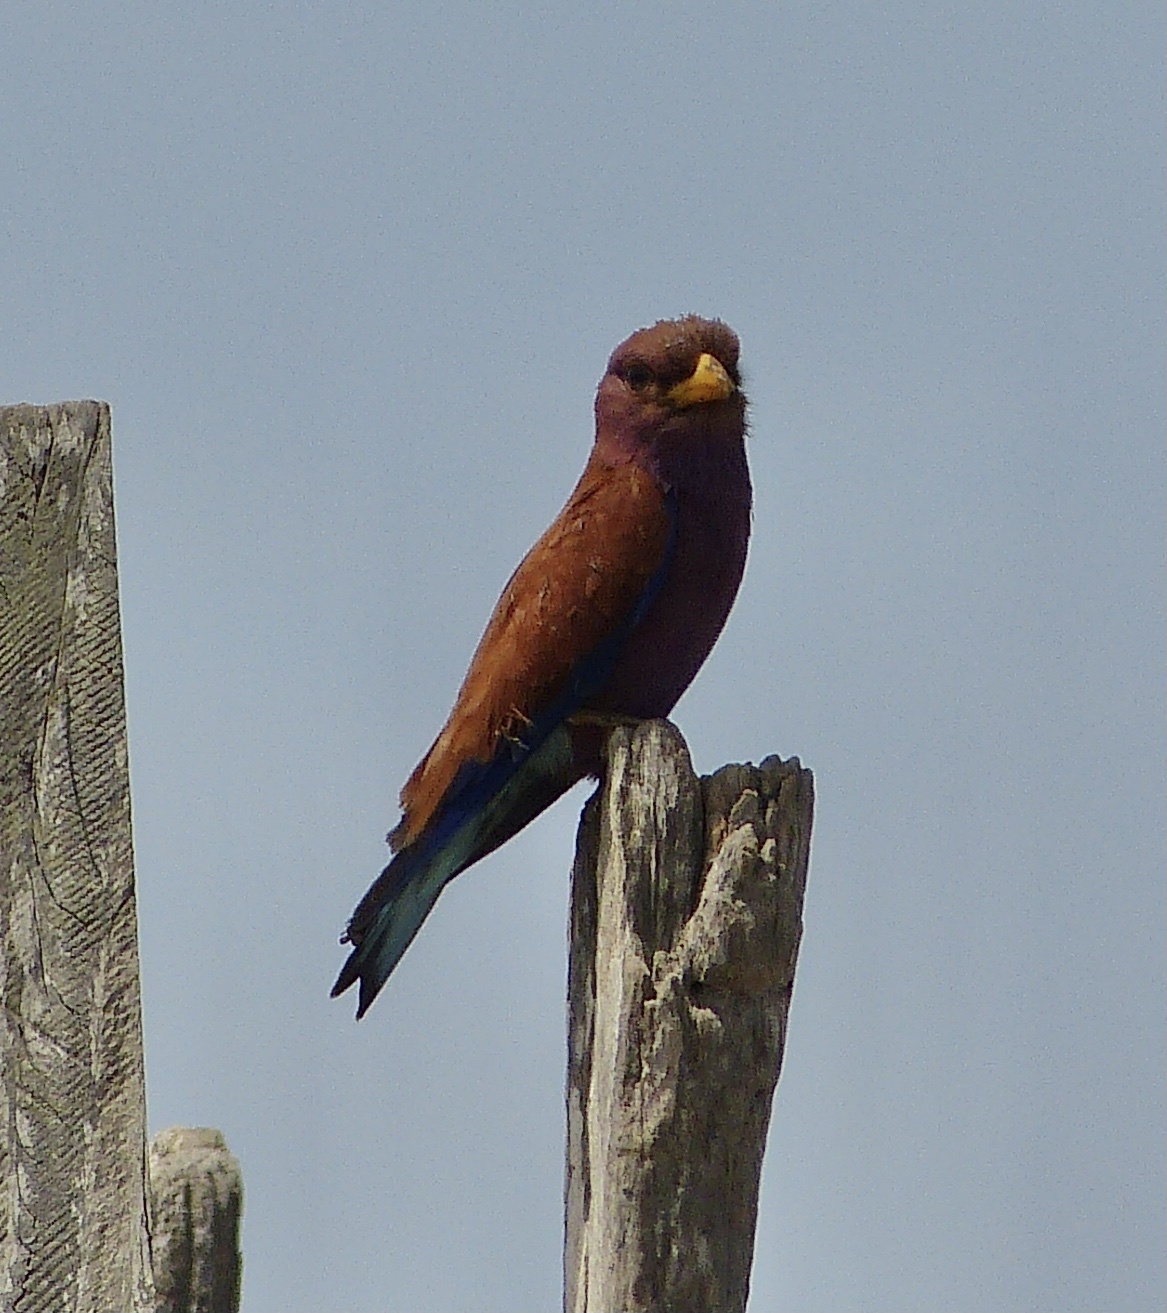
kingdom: Animalia
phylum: Chordata
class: Aves
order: Coraciiformes
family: Coraciidae
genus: Eurystomus
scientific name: Eurystomus glaucurus
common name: Broad-billed roller
